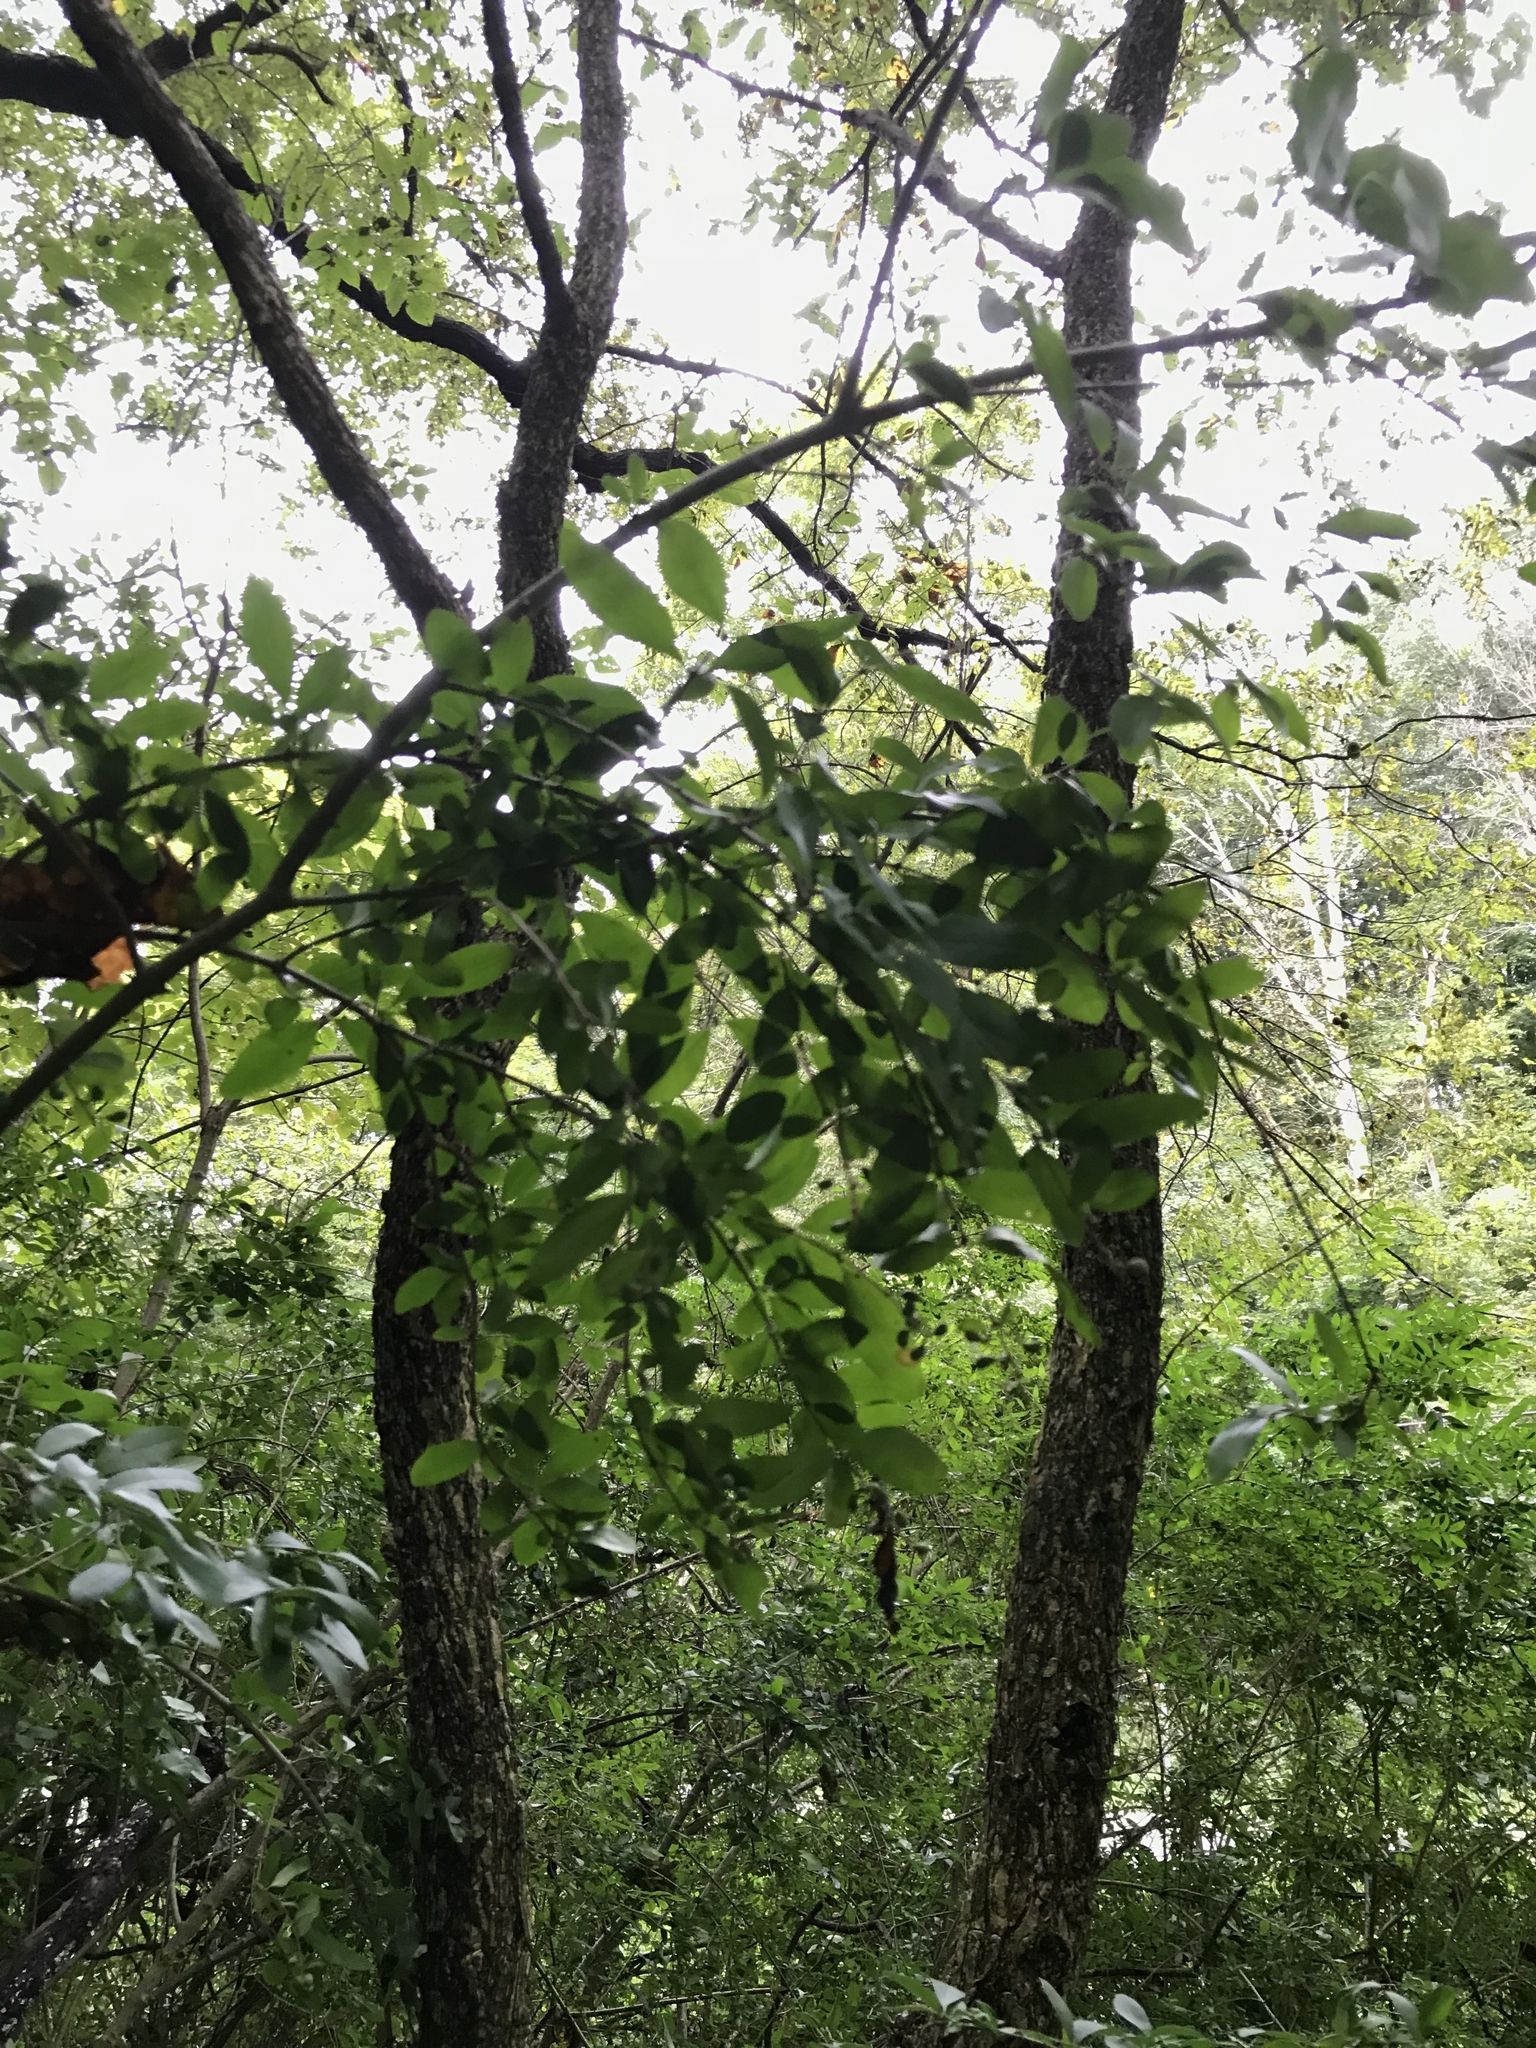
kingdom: Plantae
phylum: Tracheophyta
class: Magnoliopsida
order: Lamiales
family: Oleaceae
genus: Ligustrum
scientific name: Ligustrum obtusifolium
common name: Border privet
